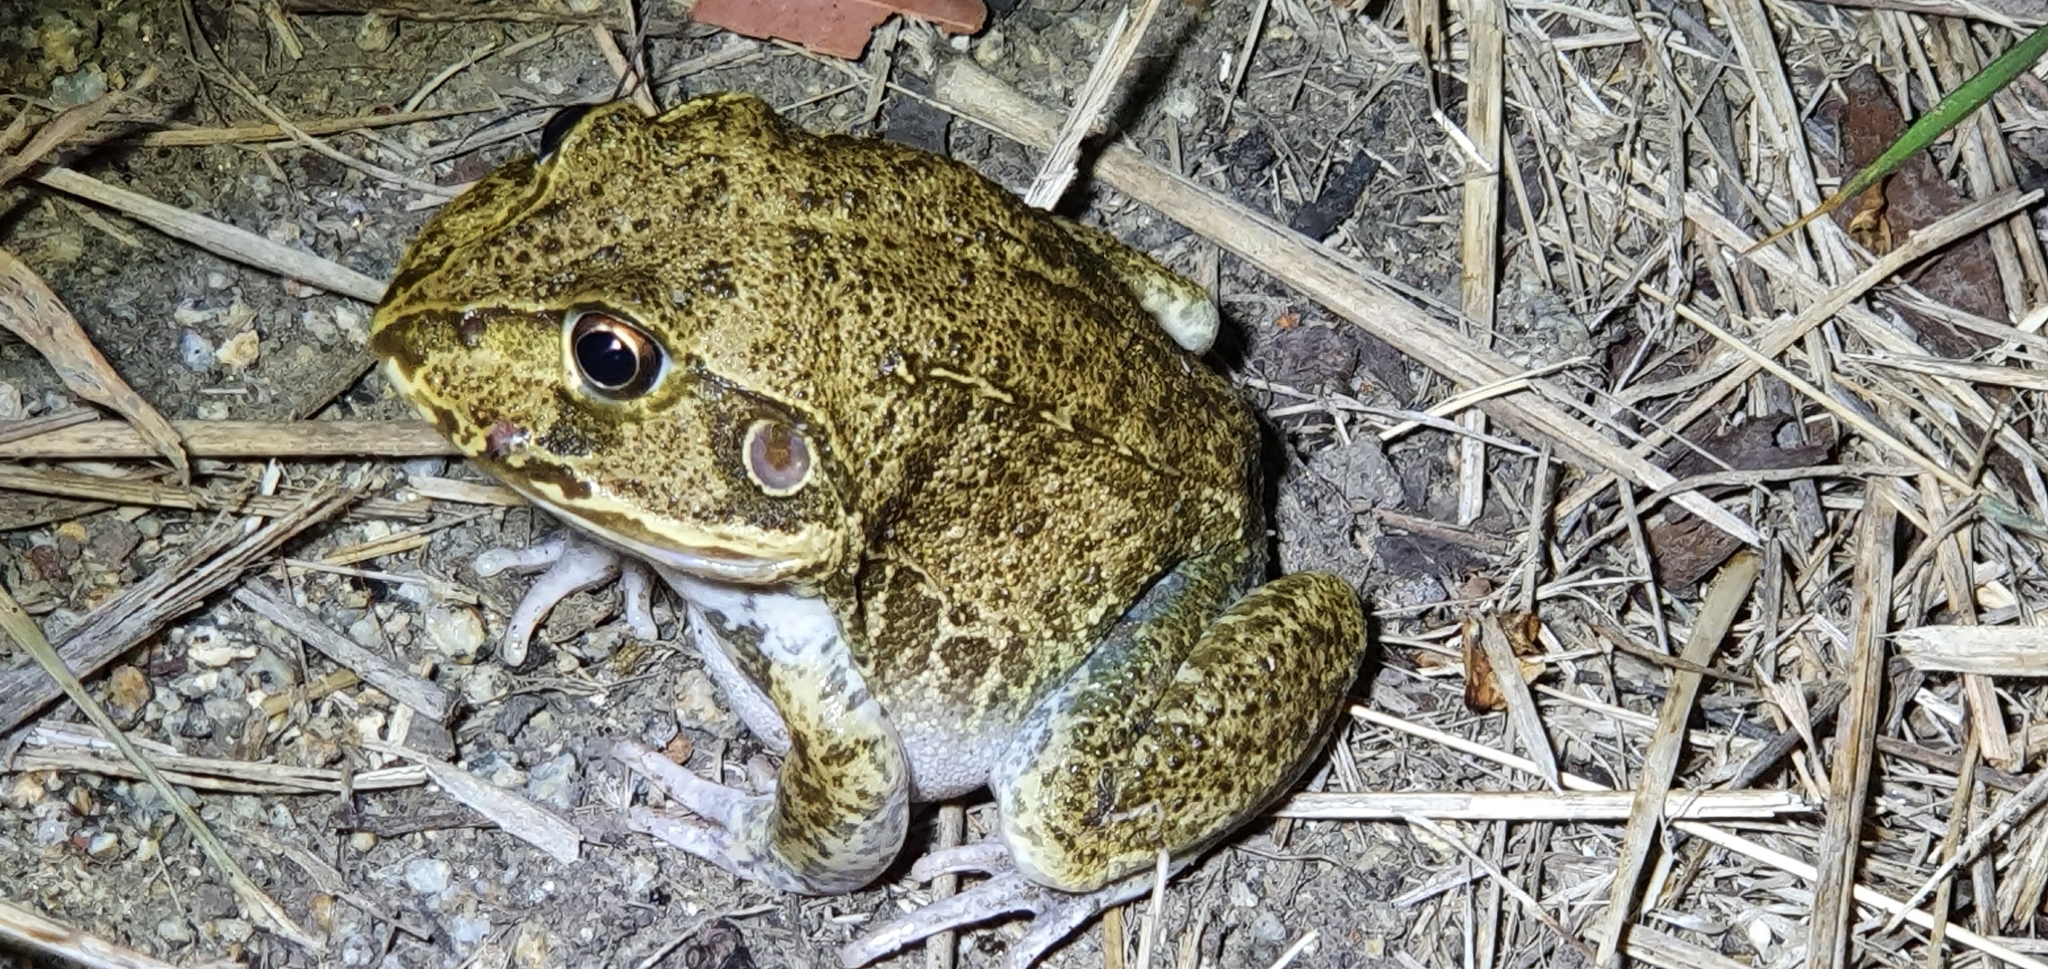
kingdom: Animalia
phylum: Chordata
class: Amphibia
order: Anura
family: Pelodryadidae
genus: Ranoidea
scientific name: Ranoidea novaehollandiae
